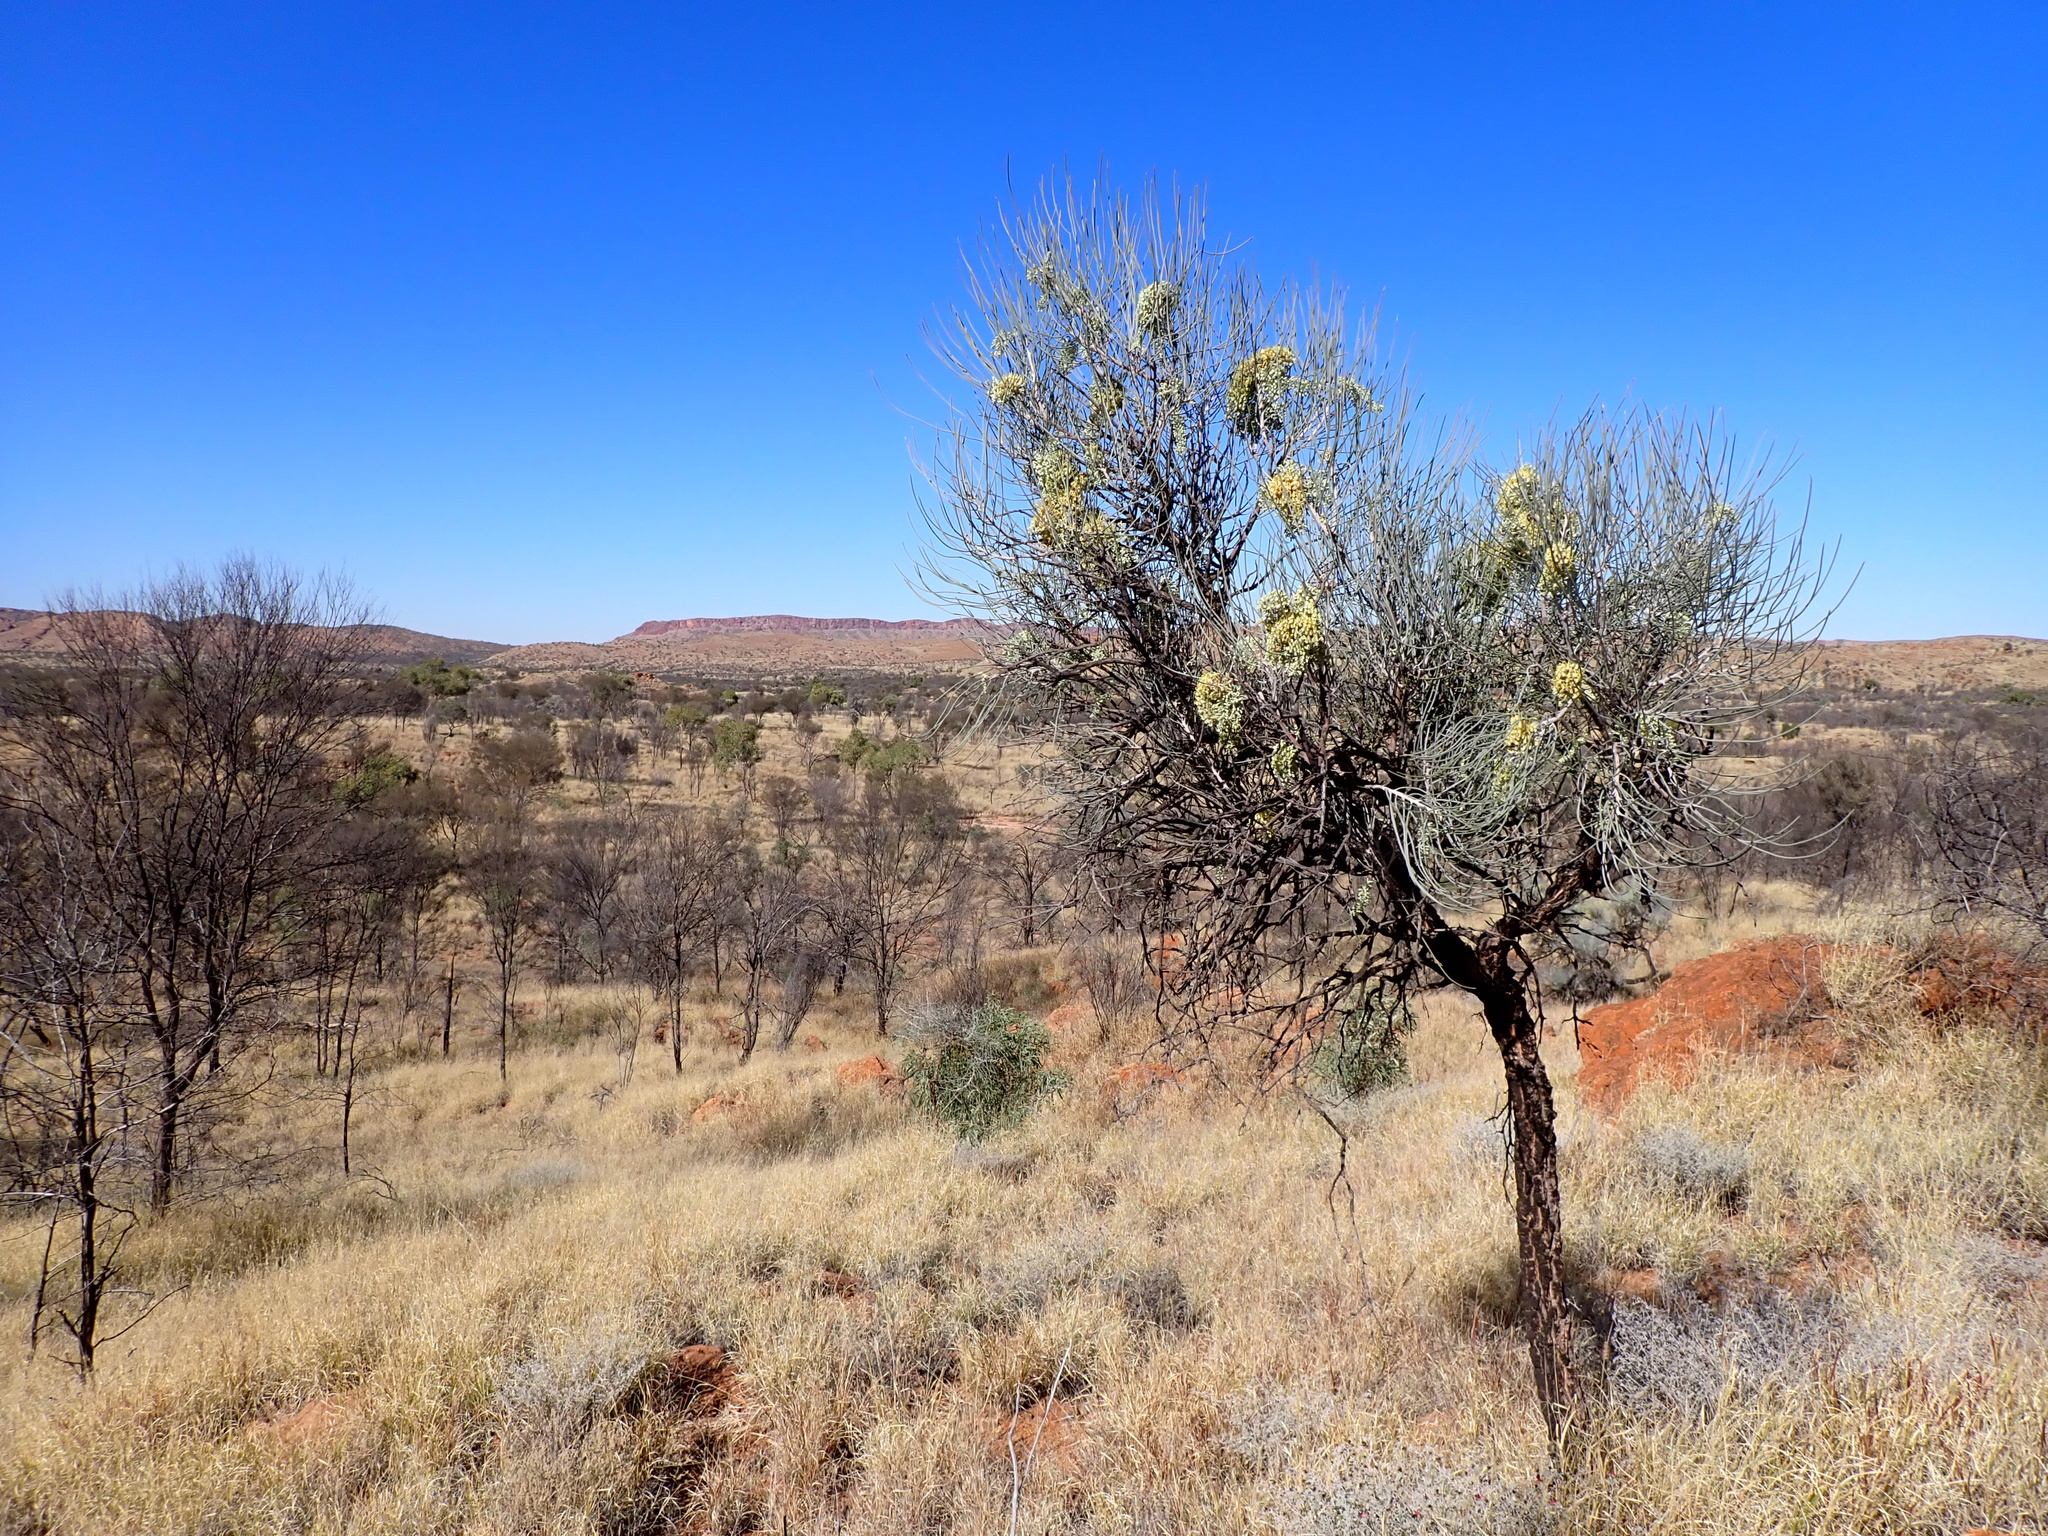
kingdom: Plantae
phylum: Tracheophyta
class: Magnoliopsida
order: Proteales
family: Proteaceae
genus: Hakea
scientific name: Hakea lorea
